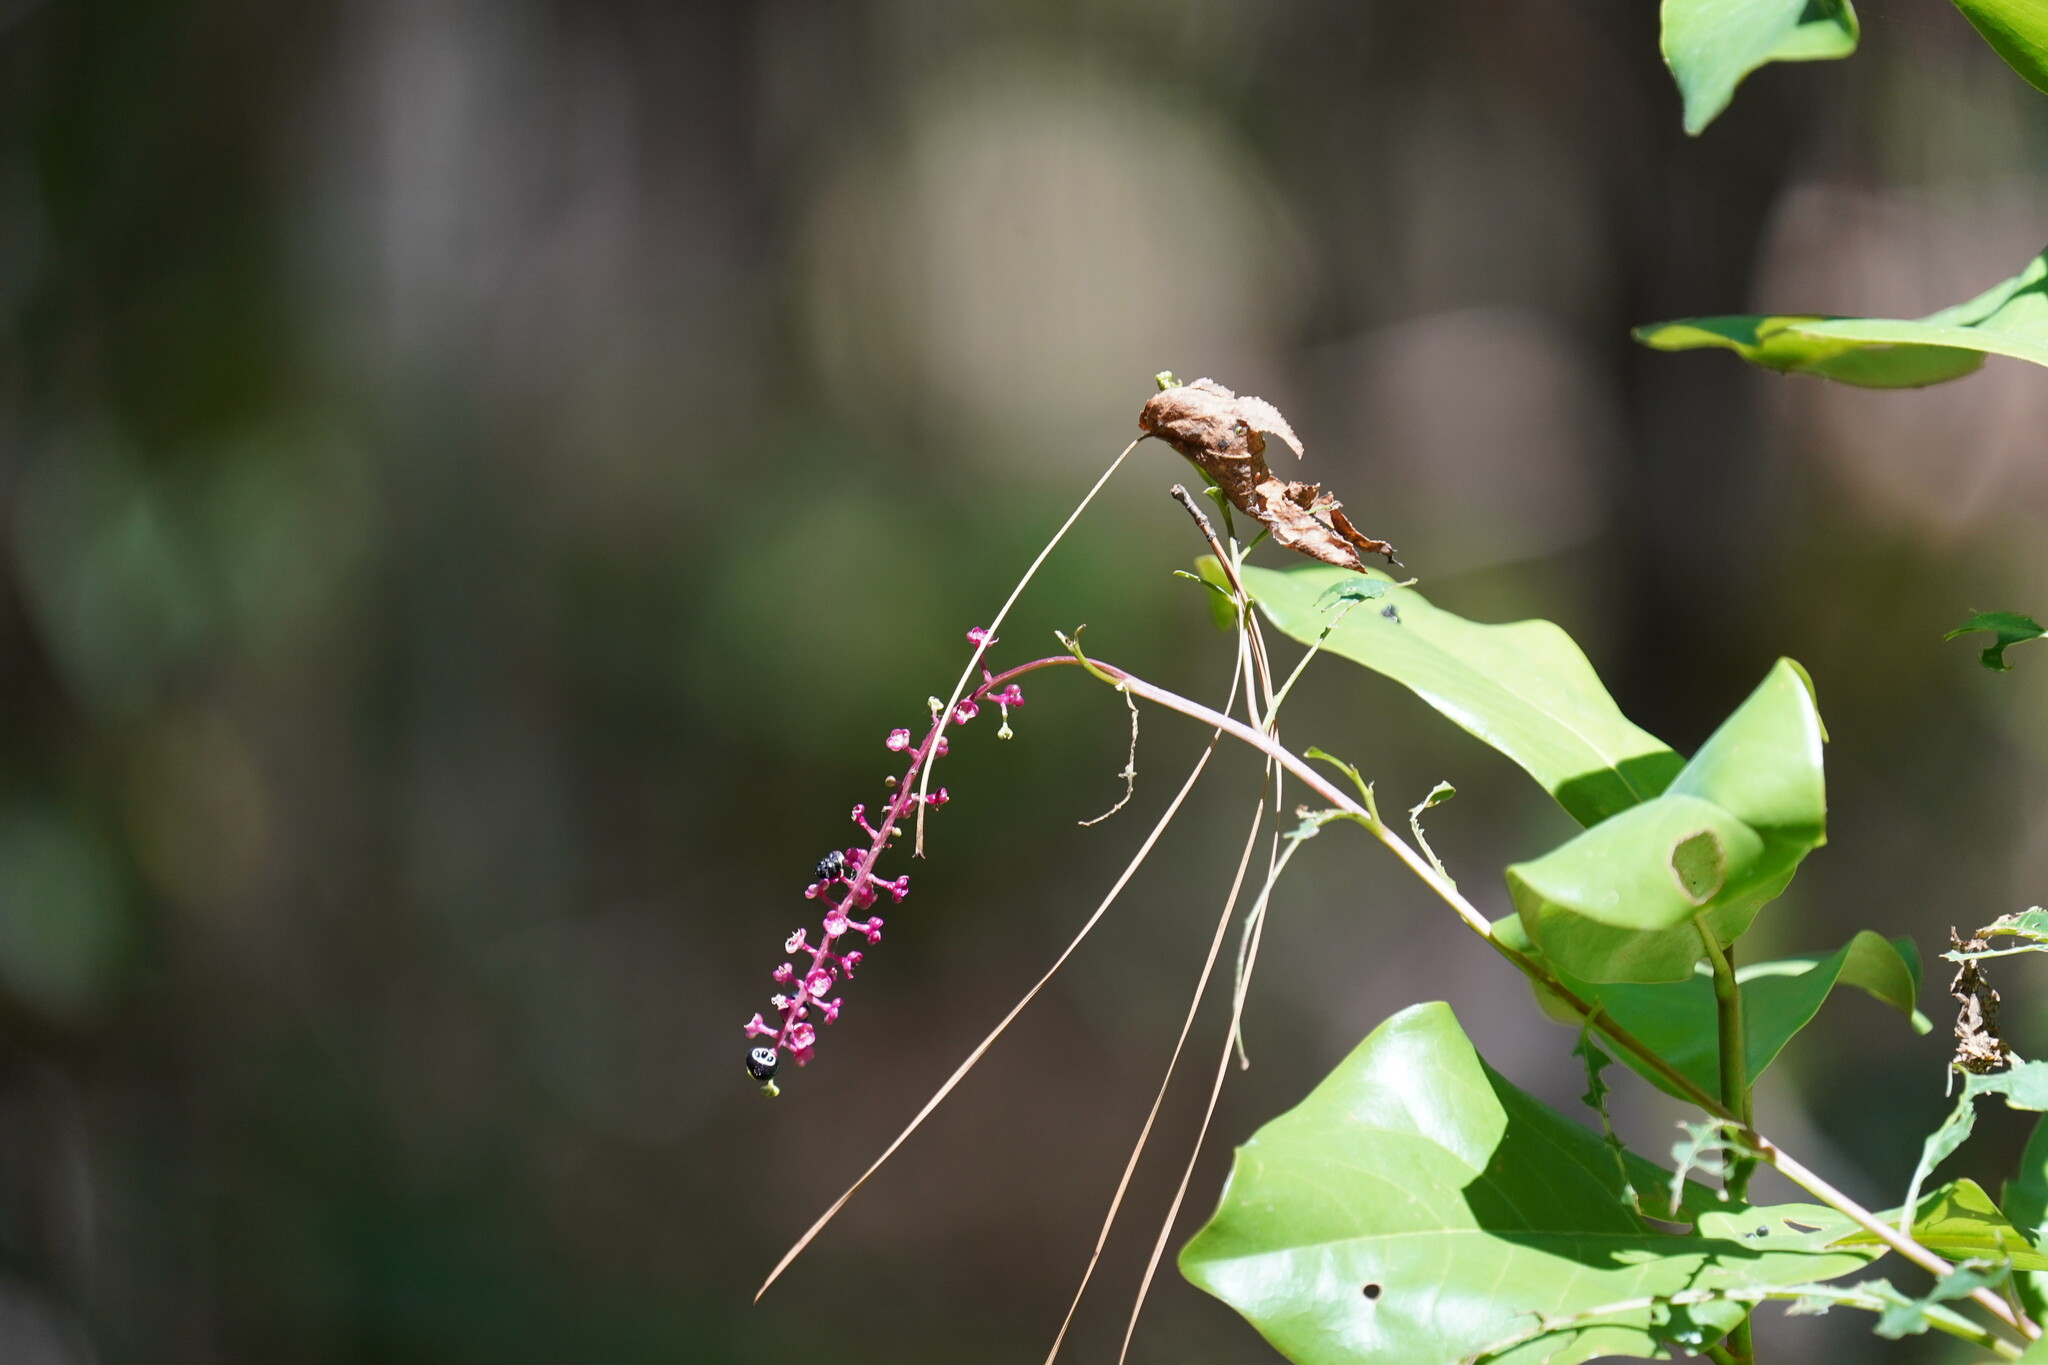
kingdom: Plantae
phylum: Tracheophyta
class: Magnoliopsida
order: Caryophyllales
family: Phytolaccaceae
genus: Phytolacca
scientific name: Phytolacca americana
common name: American pokeweed
